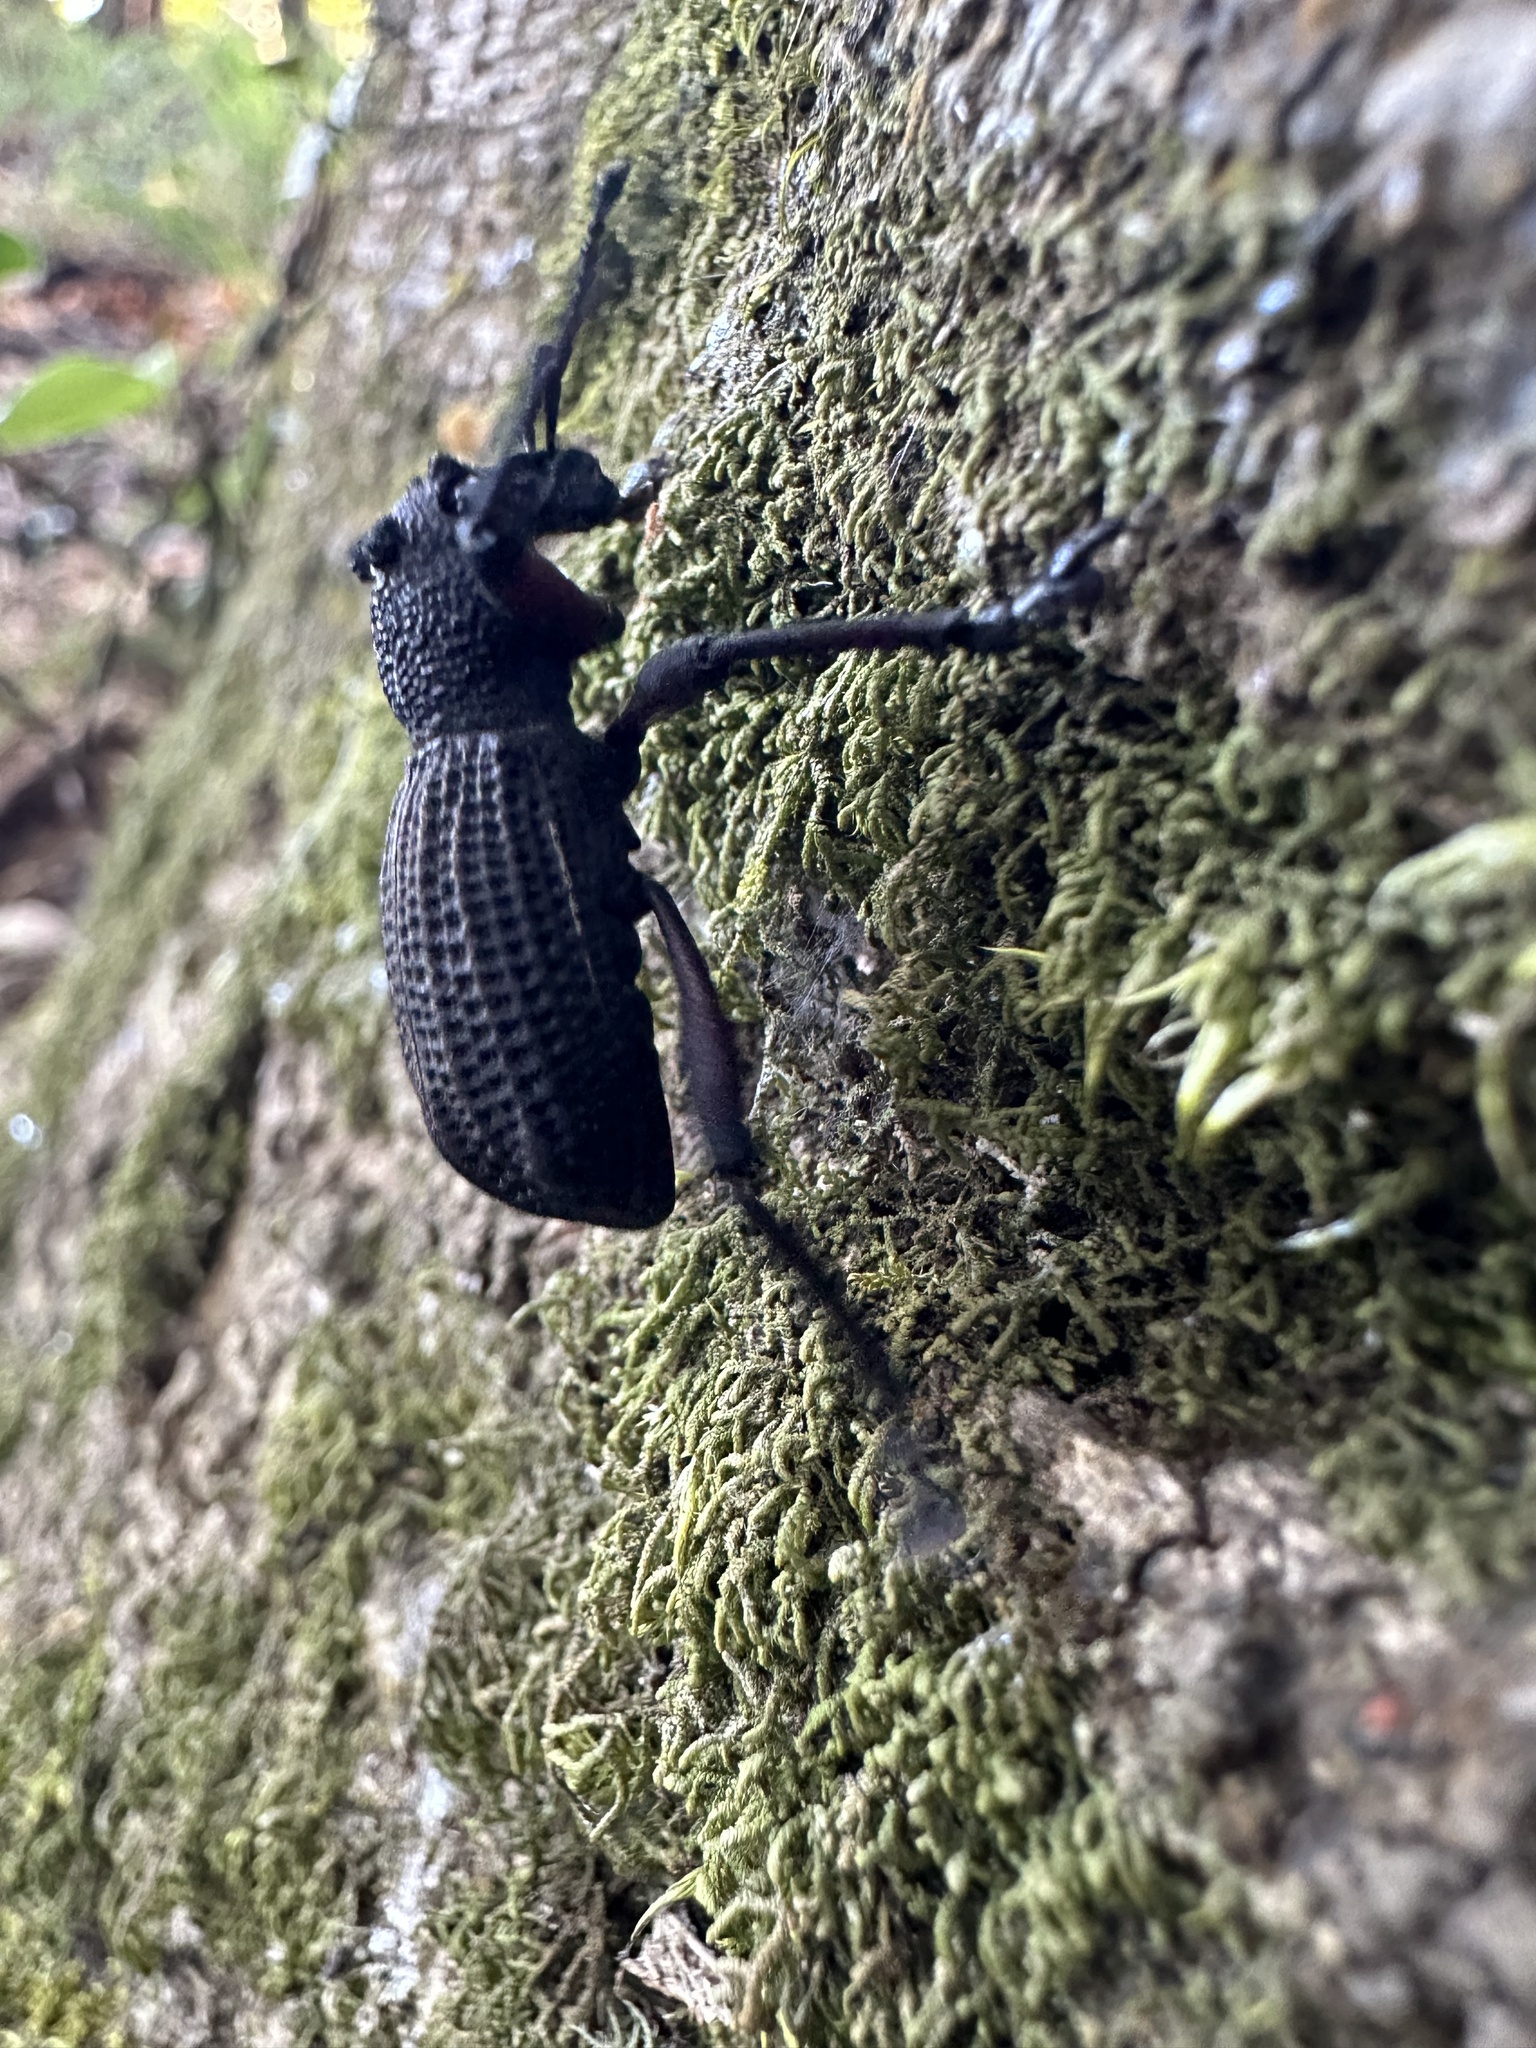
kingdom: Animalia
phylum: Arthropoda
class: Insecta
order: Coleoptera
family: Curculionidae
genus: Aegorhinus
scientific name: Aegorhinus
